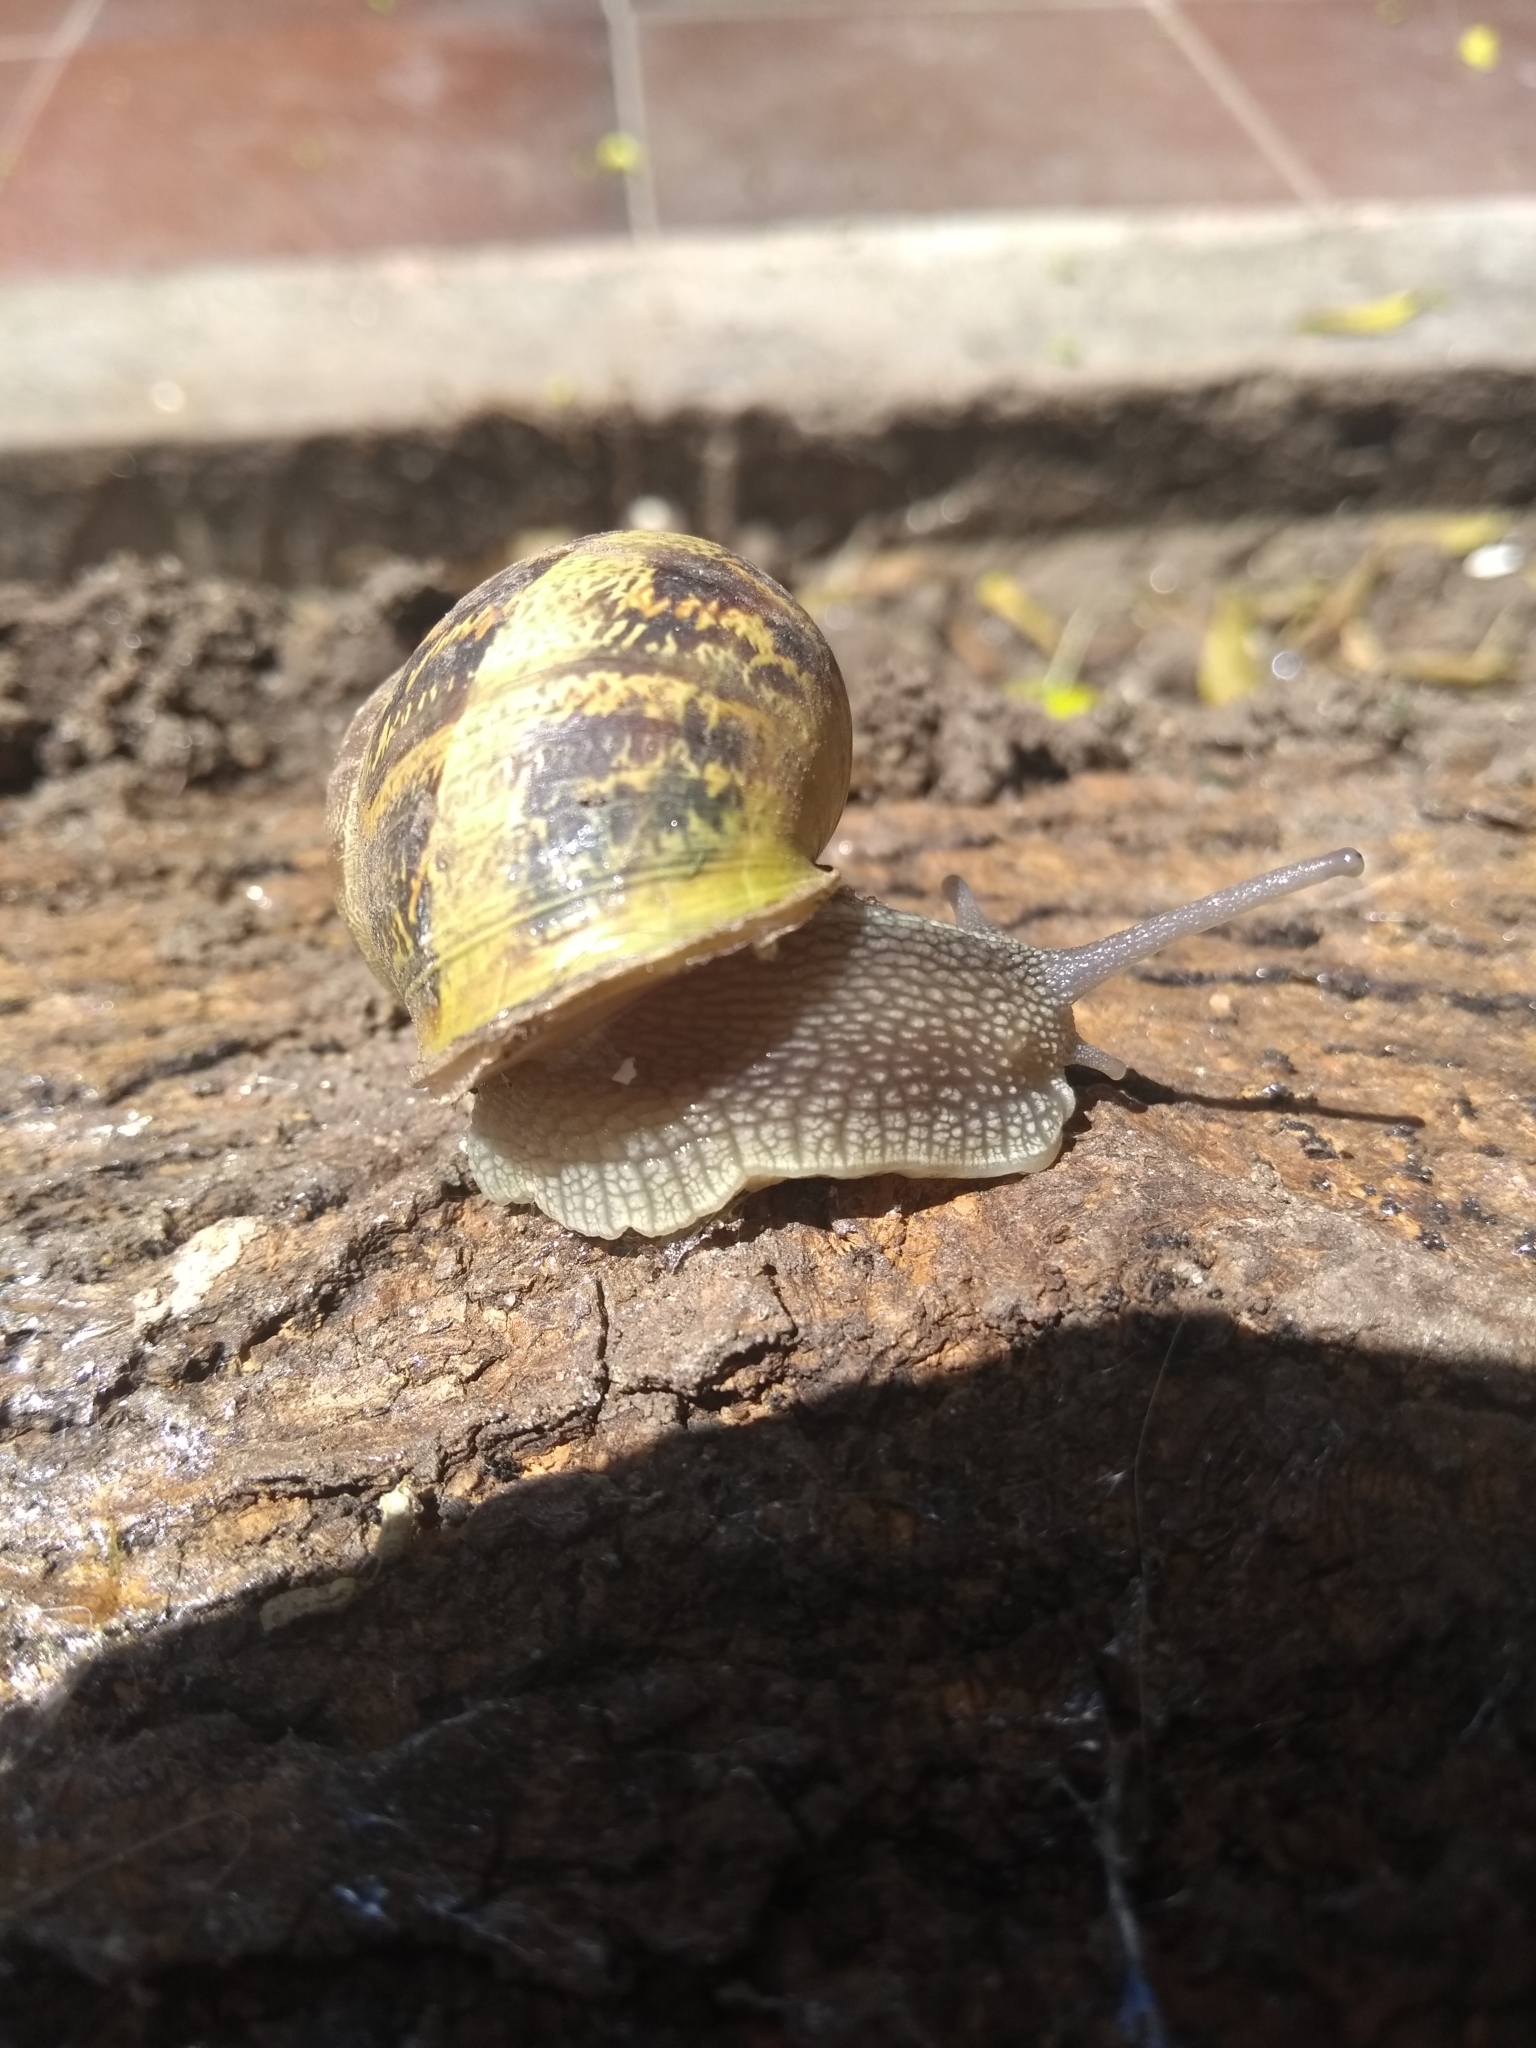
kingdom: Animalia
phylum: Mollusca
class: Gastropoda
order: Stylommatophora
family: Helicidae
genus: Cornu
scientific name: Cornu aspersum
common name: Brown garden snail
